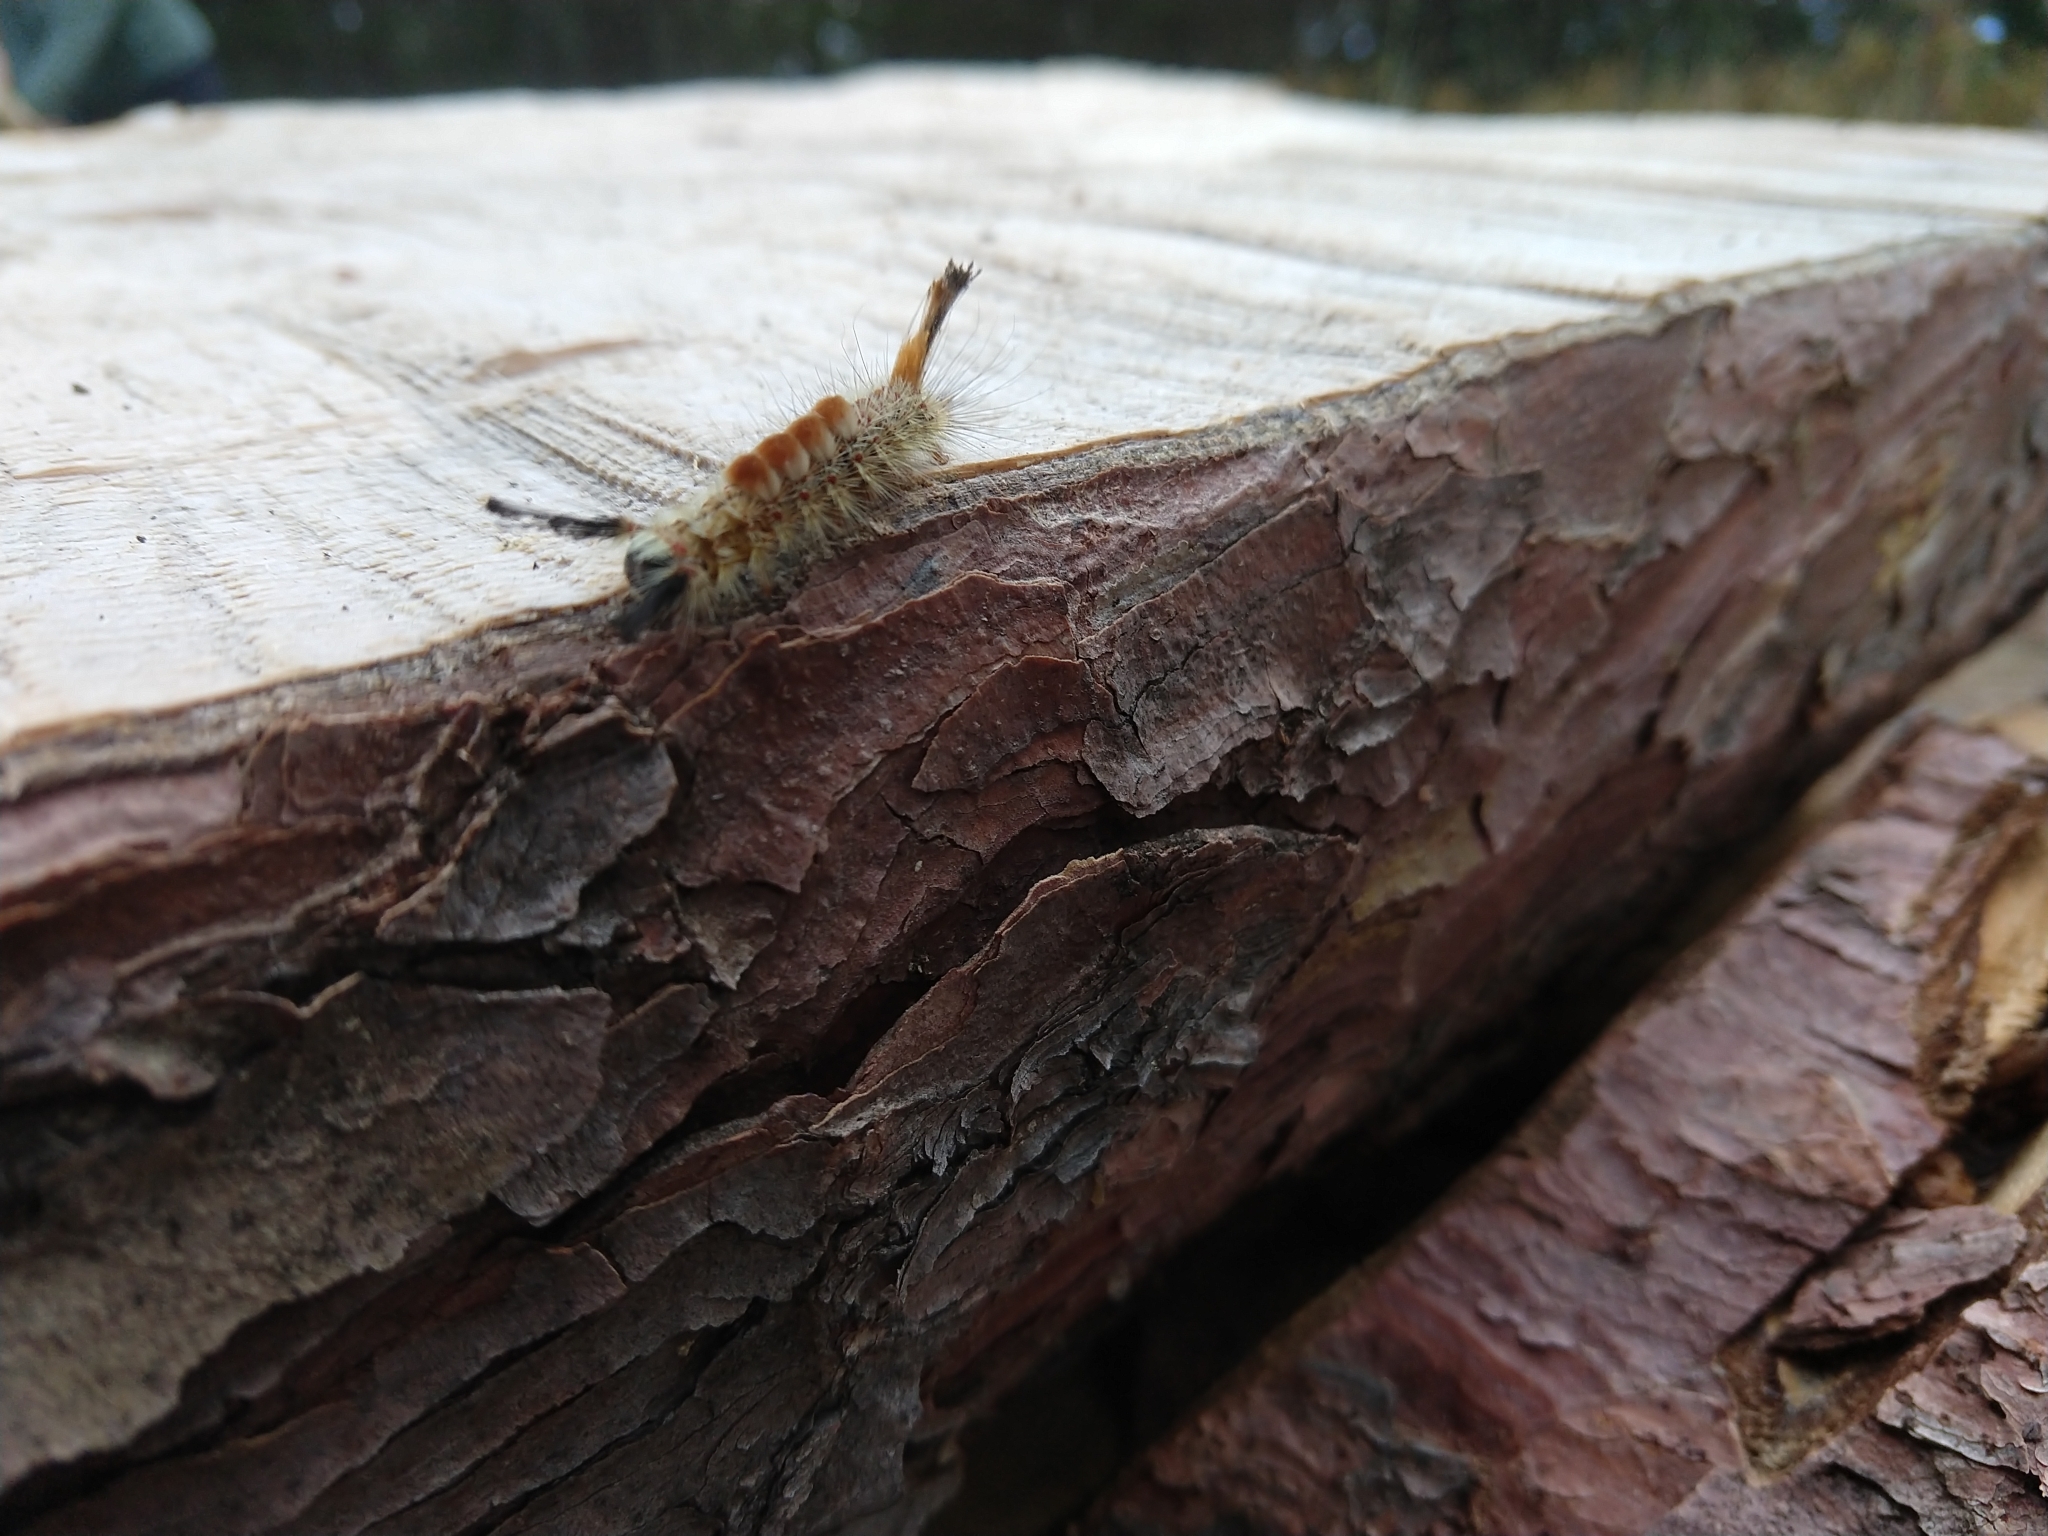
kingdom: Animalia
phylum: Arthropoda
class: Insecta
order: Lepidoptera
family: Erebidae
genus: Orgyia
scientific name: Orgyia pseudotsugata
